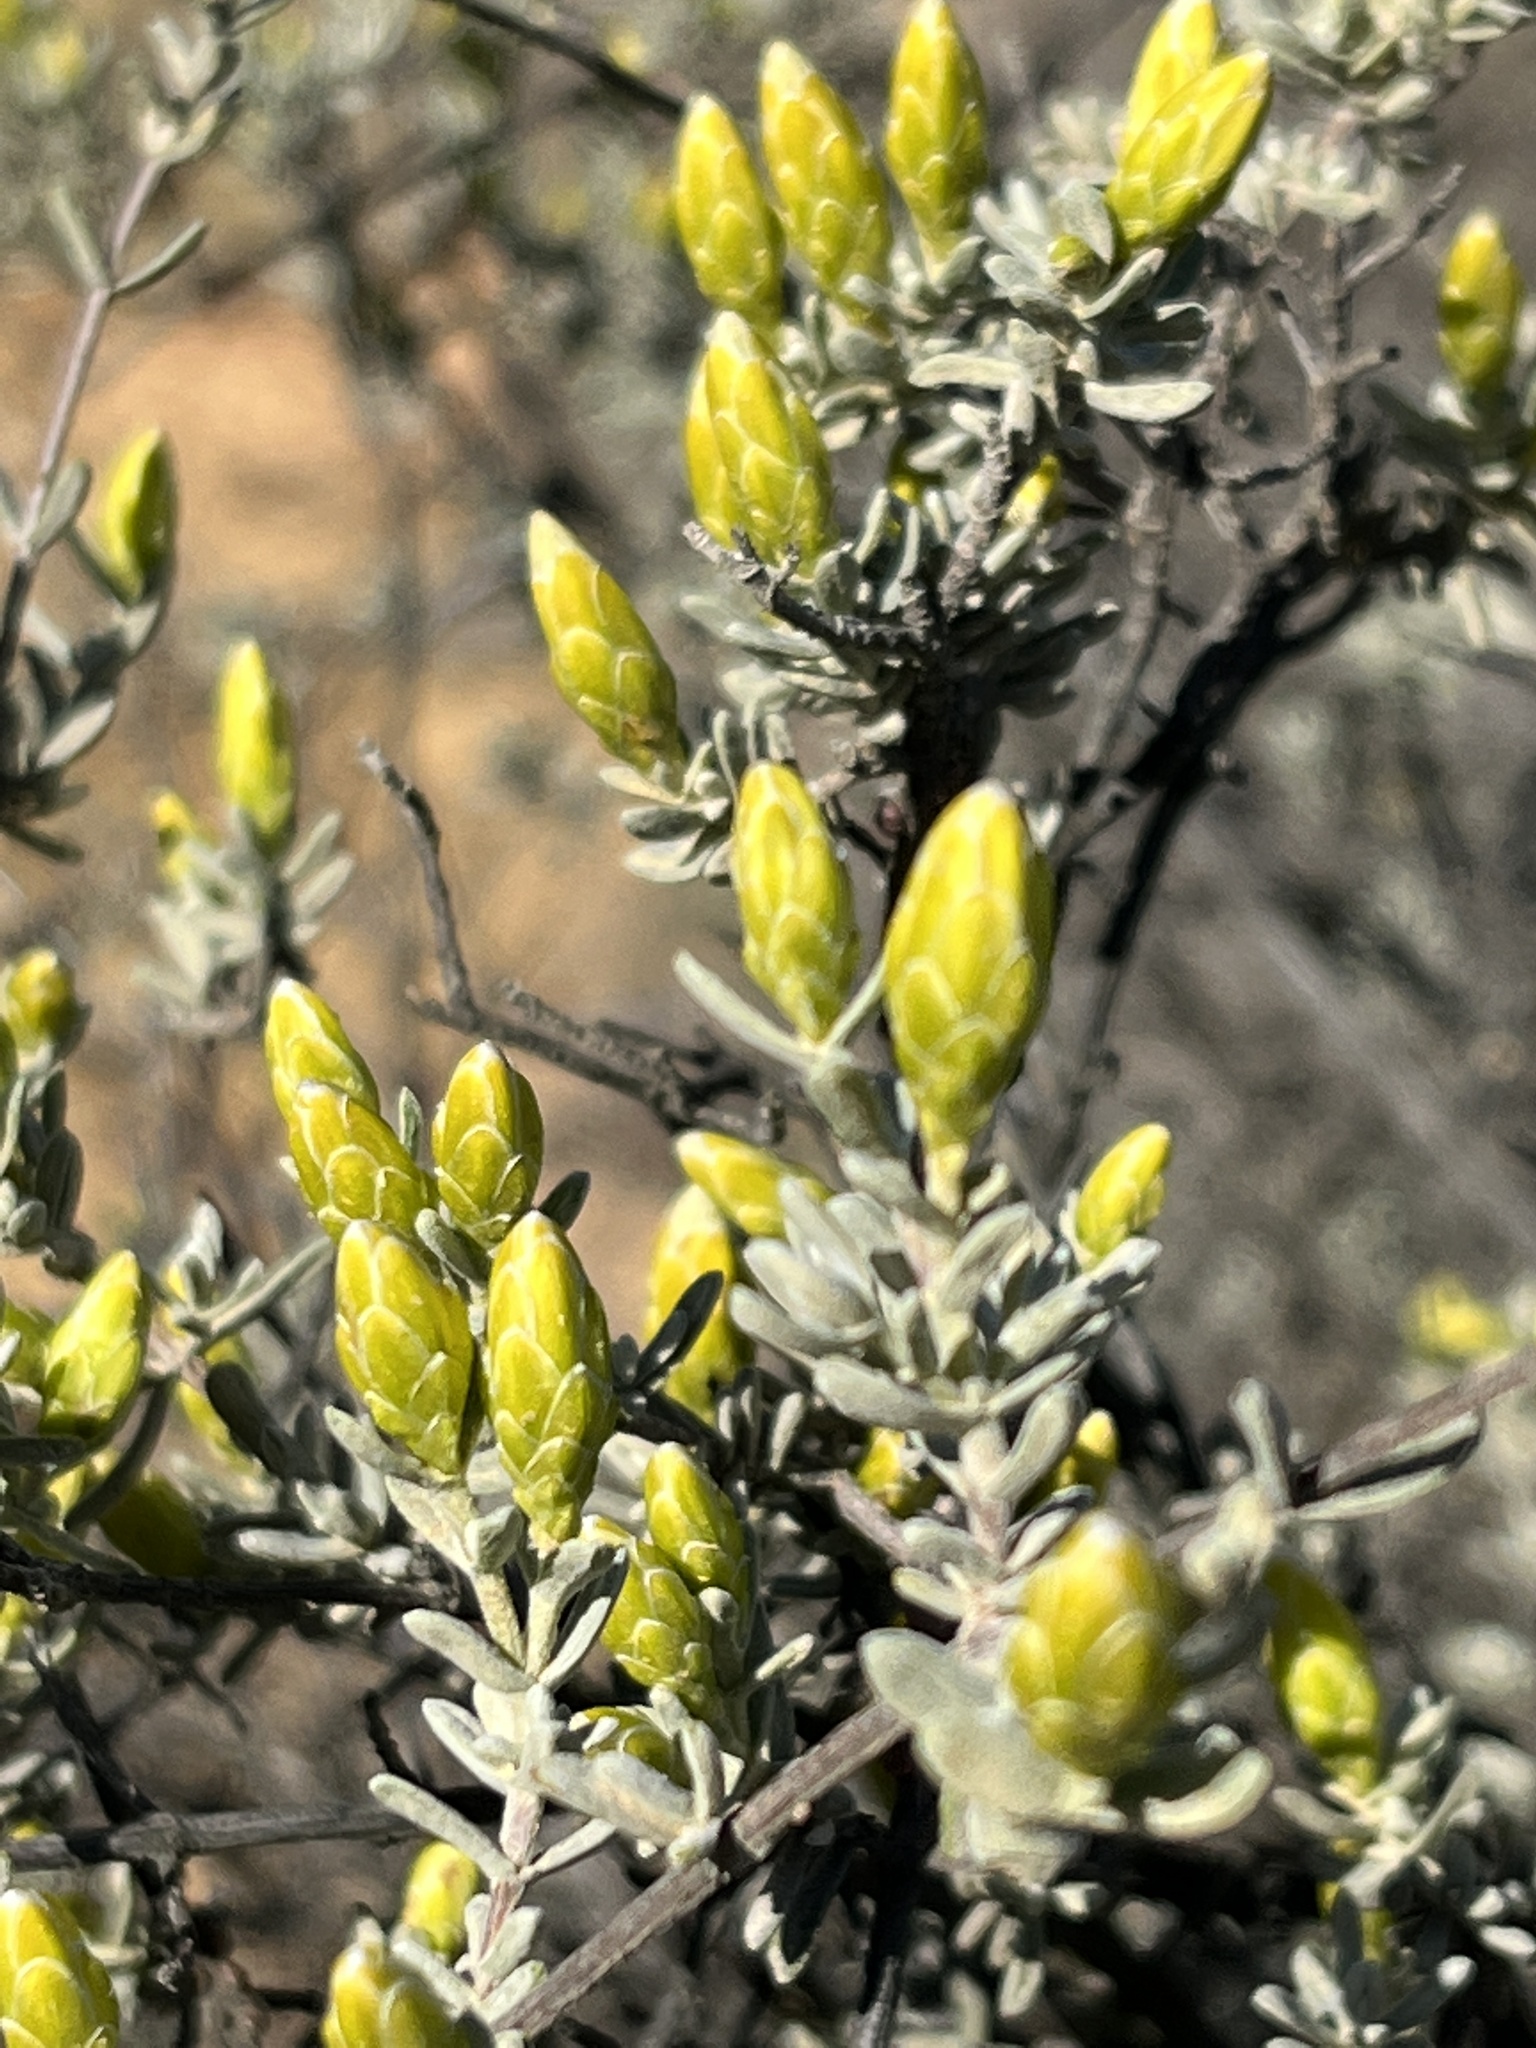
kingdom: Plantae
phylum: Tracheophyta
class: Magnoliopsida
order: Asterales
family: Asteraceae
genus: Pteronia
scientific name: Pteronia incana
